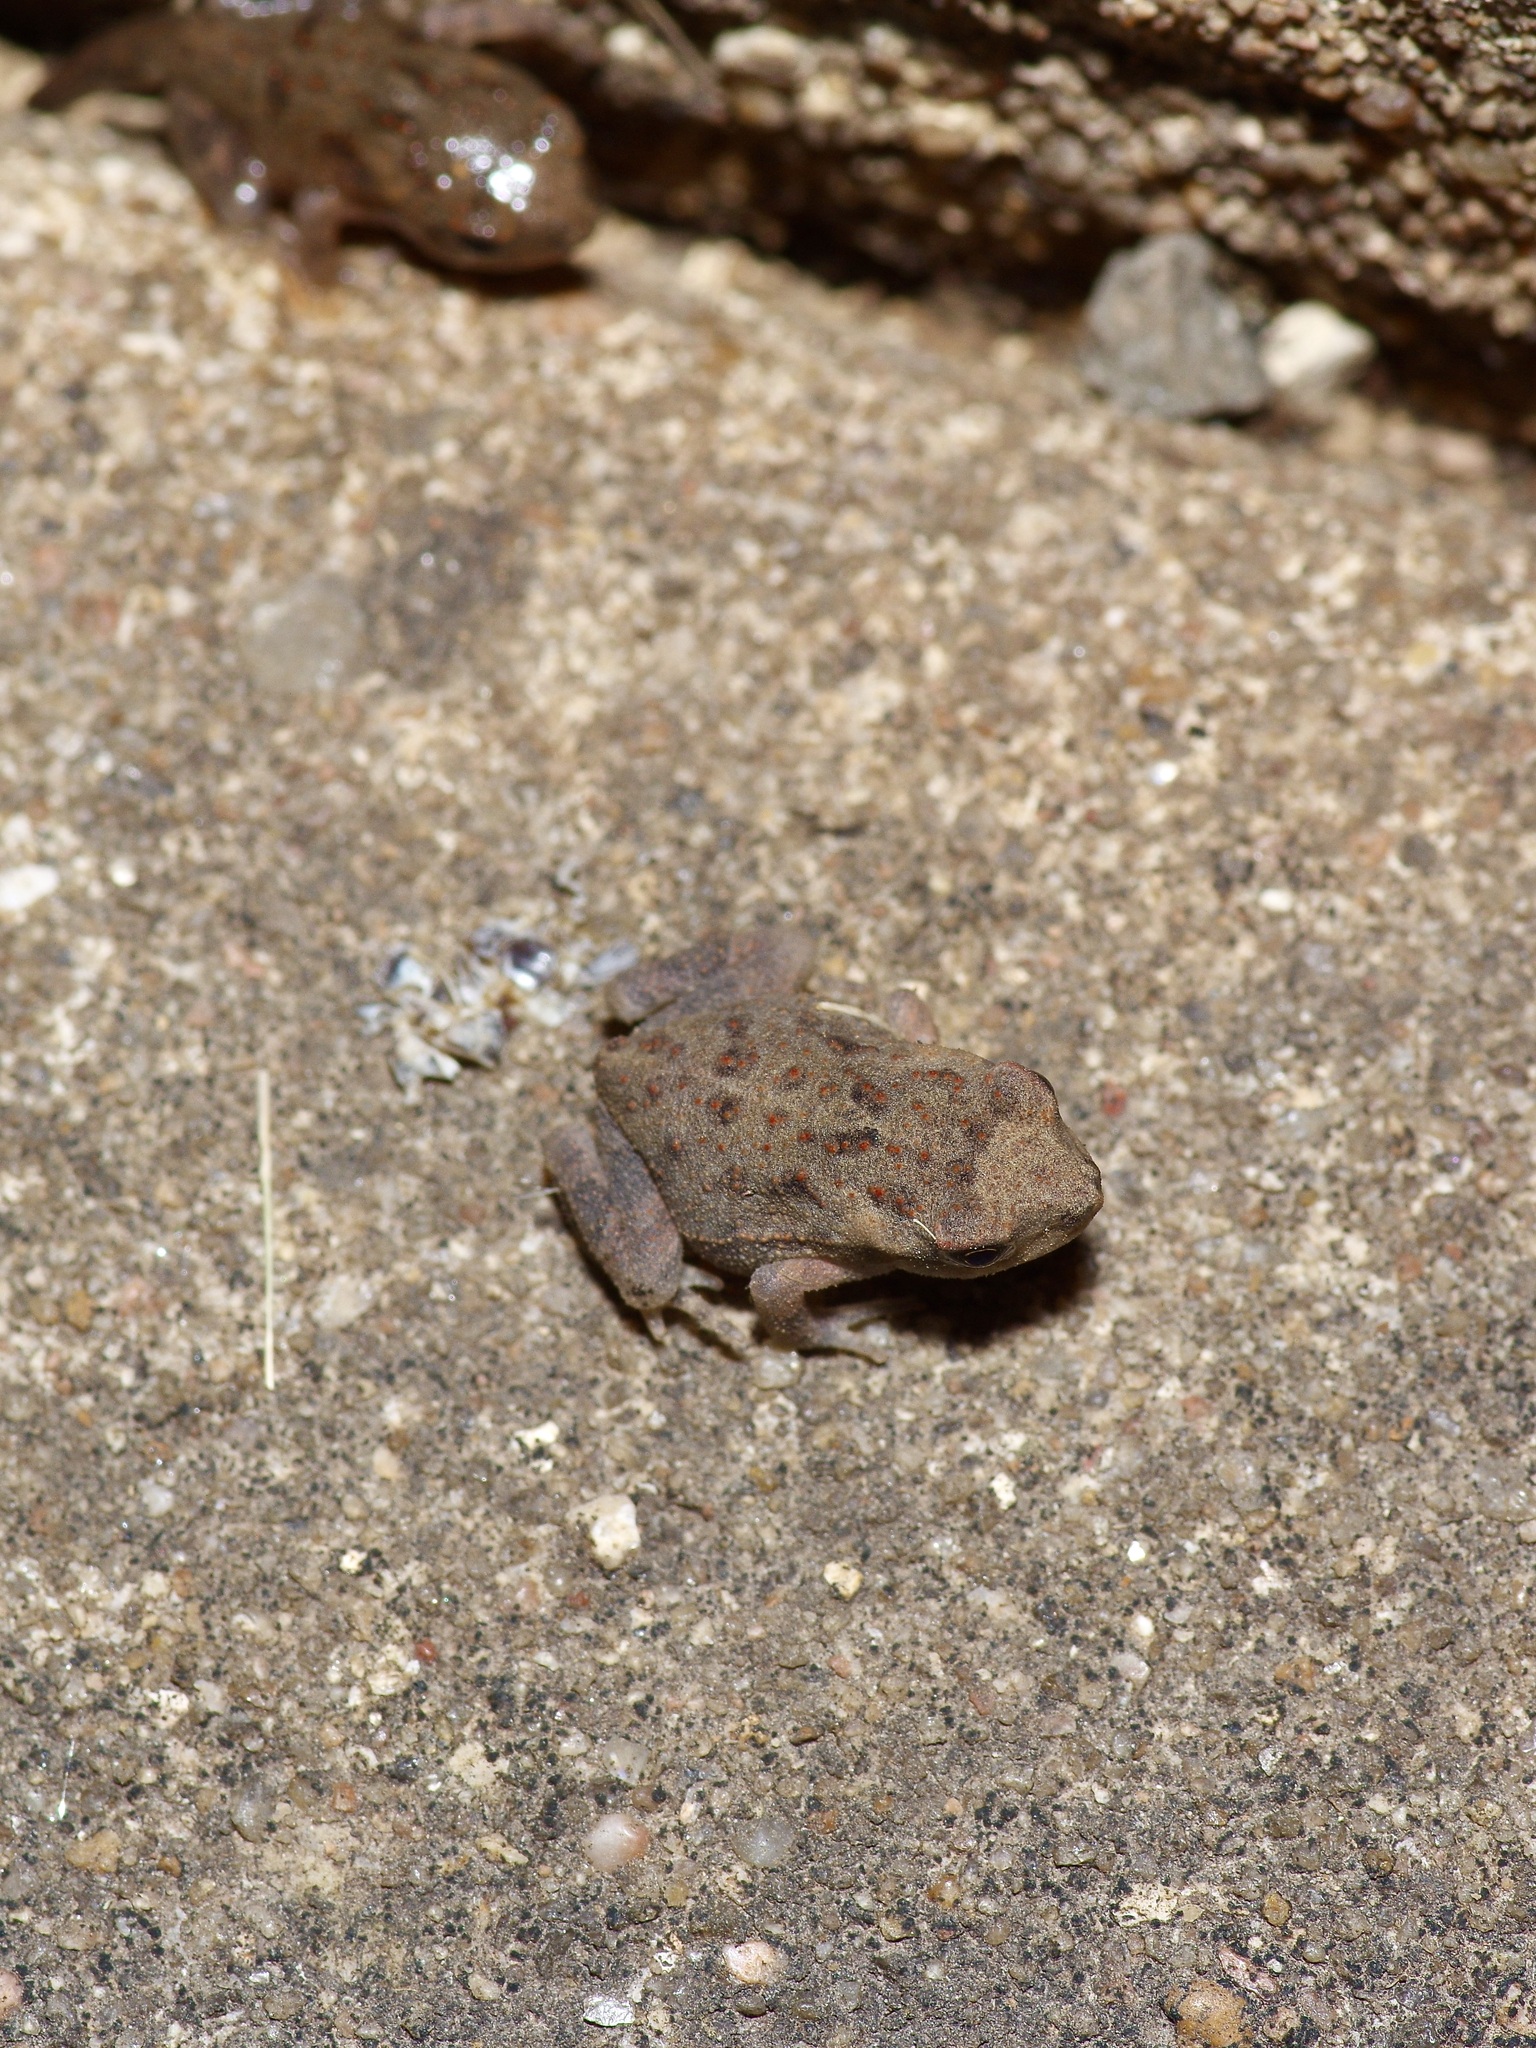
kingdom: Animalia
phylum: Chordata
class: Amphibia
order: Anura
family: Bufonidae
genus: Incilius
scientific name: Incilius nebulifer
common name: Gulf coast toad
